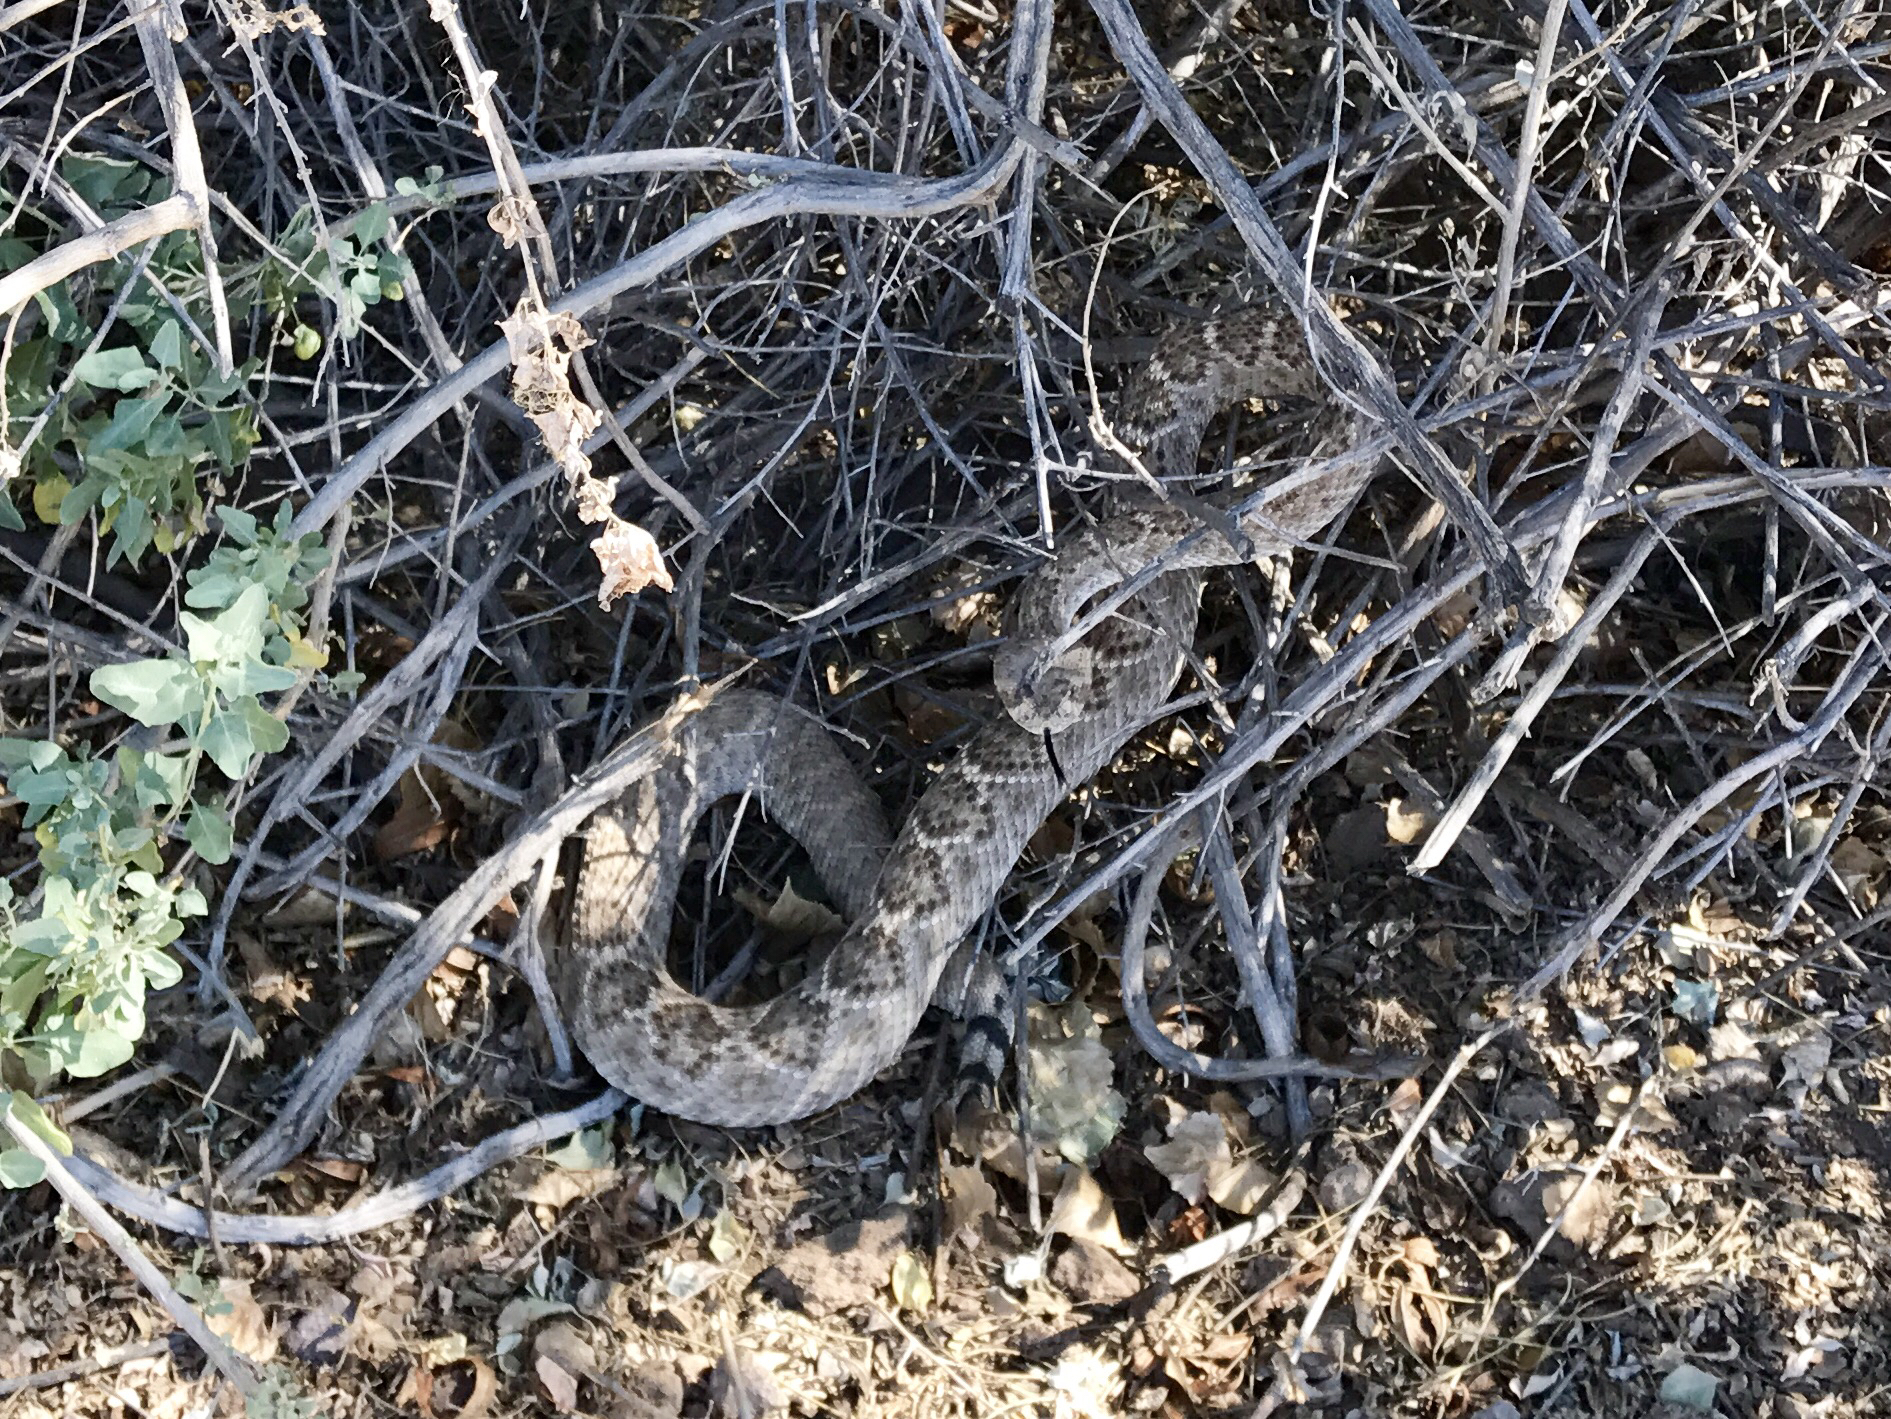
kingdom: Animalia
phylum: Chordata
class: Squamata
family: Viperidae
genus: Crotalus
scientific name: Crotalus atrox
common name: Western diamond-backed rattlesnake
